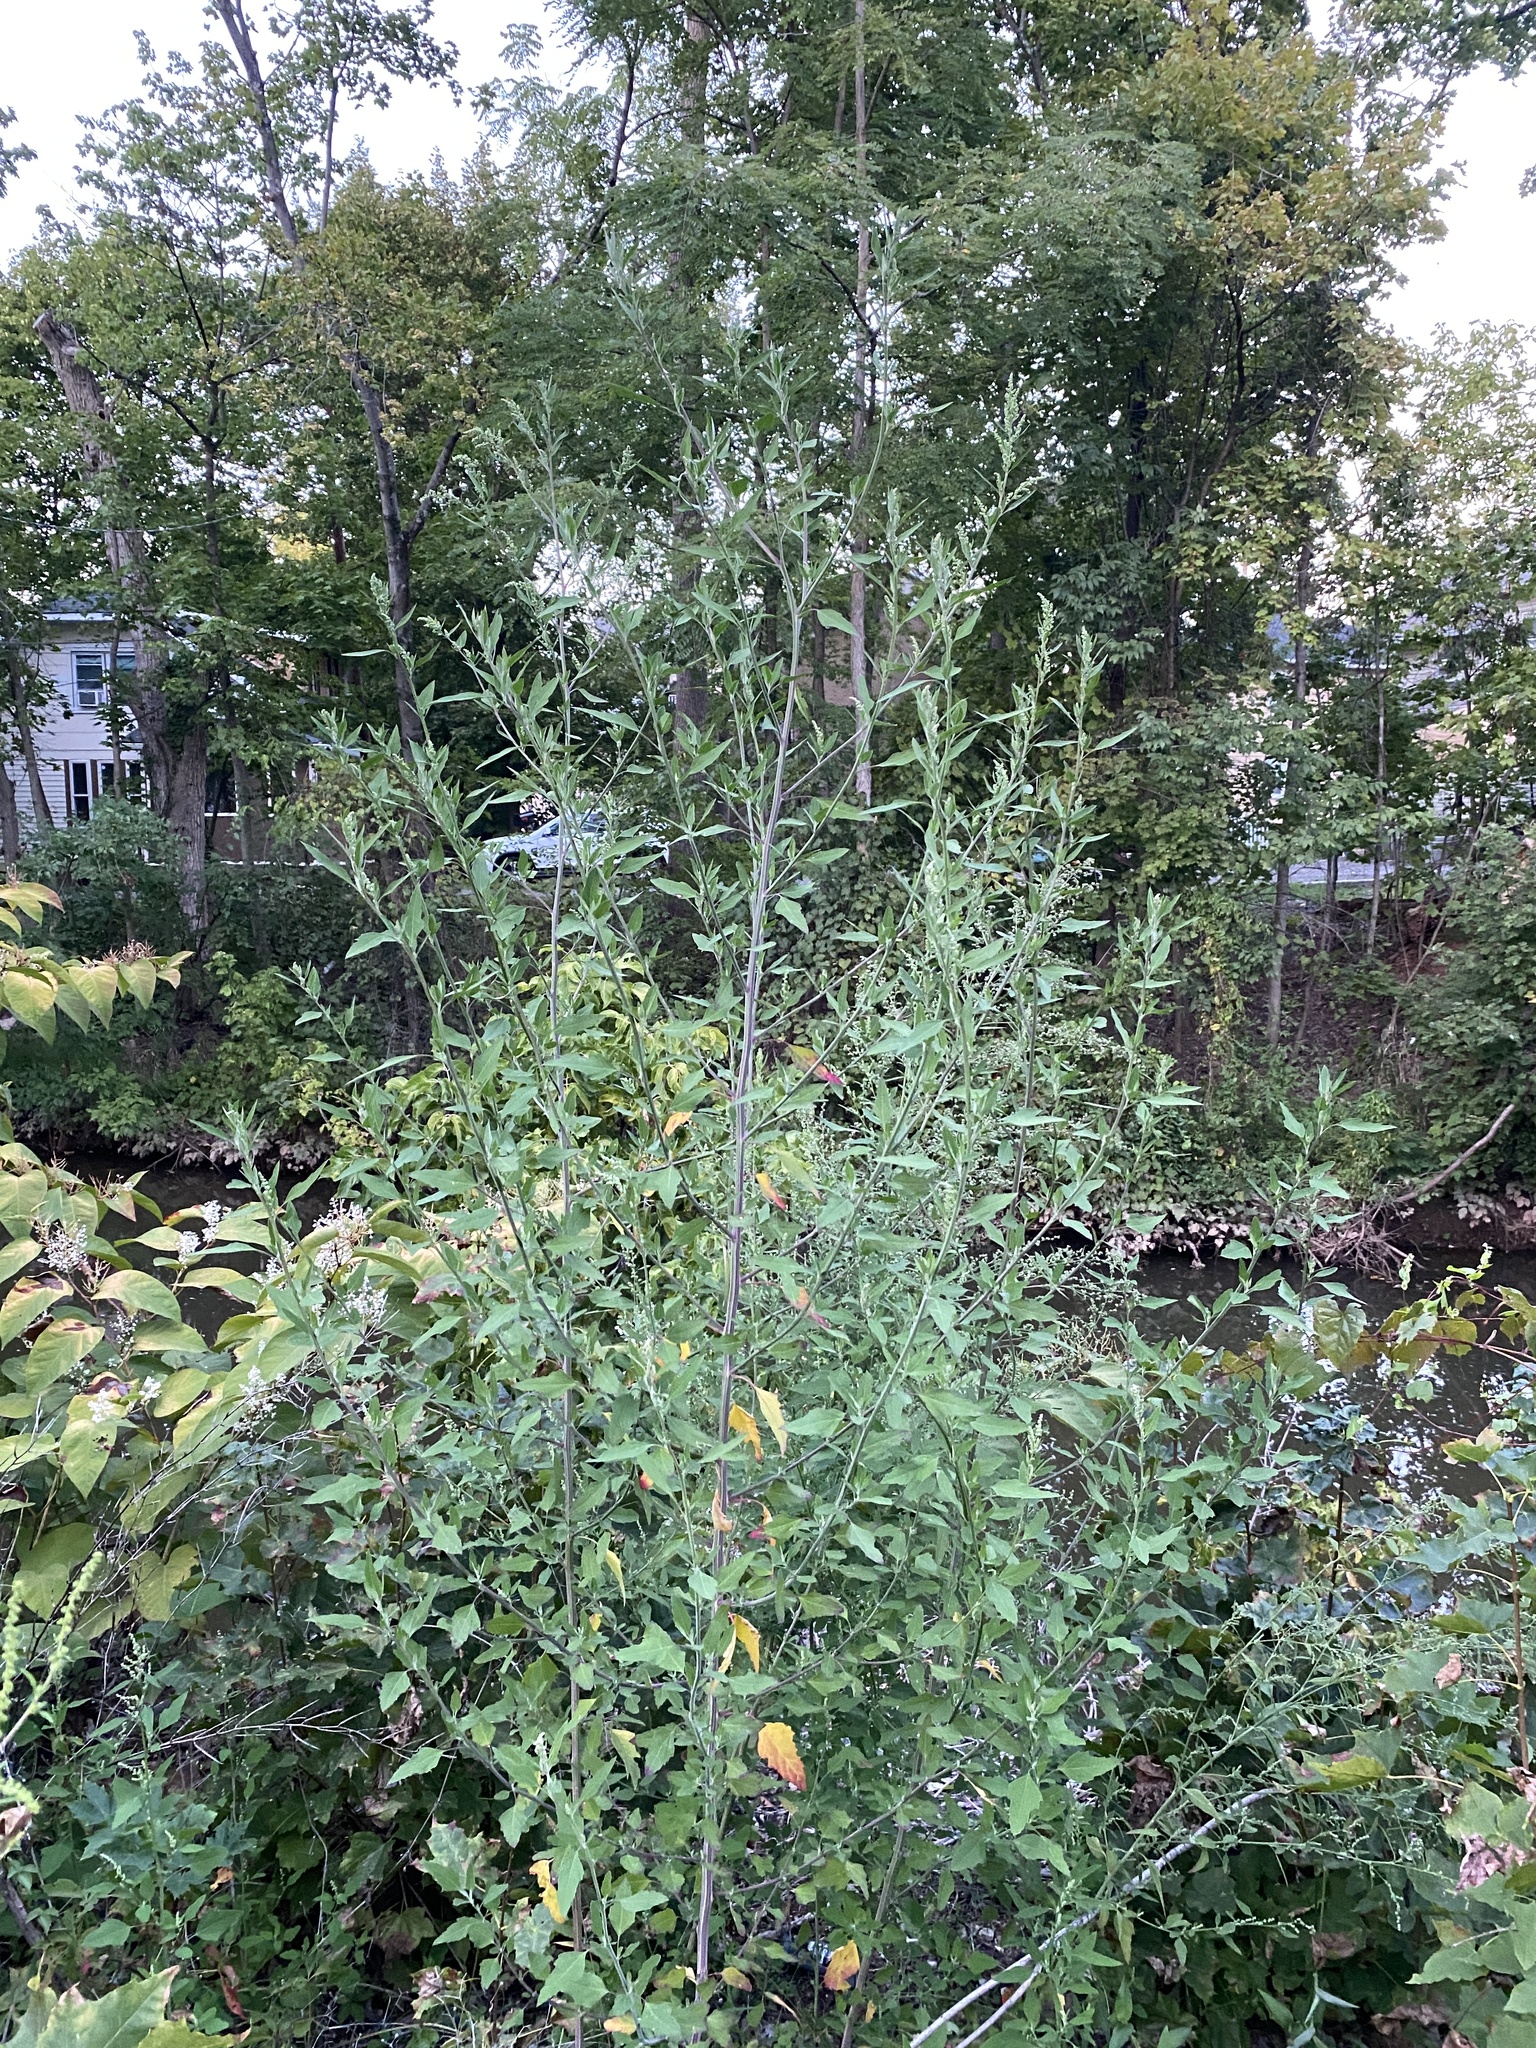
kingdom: Plantae
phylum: Tracheophyta
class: Magnoliopsida
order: Caryophyllales
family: Amaranthaceae
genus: Chenopodium
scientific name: Chenopodium album
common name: Fat-hen
